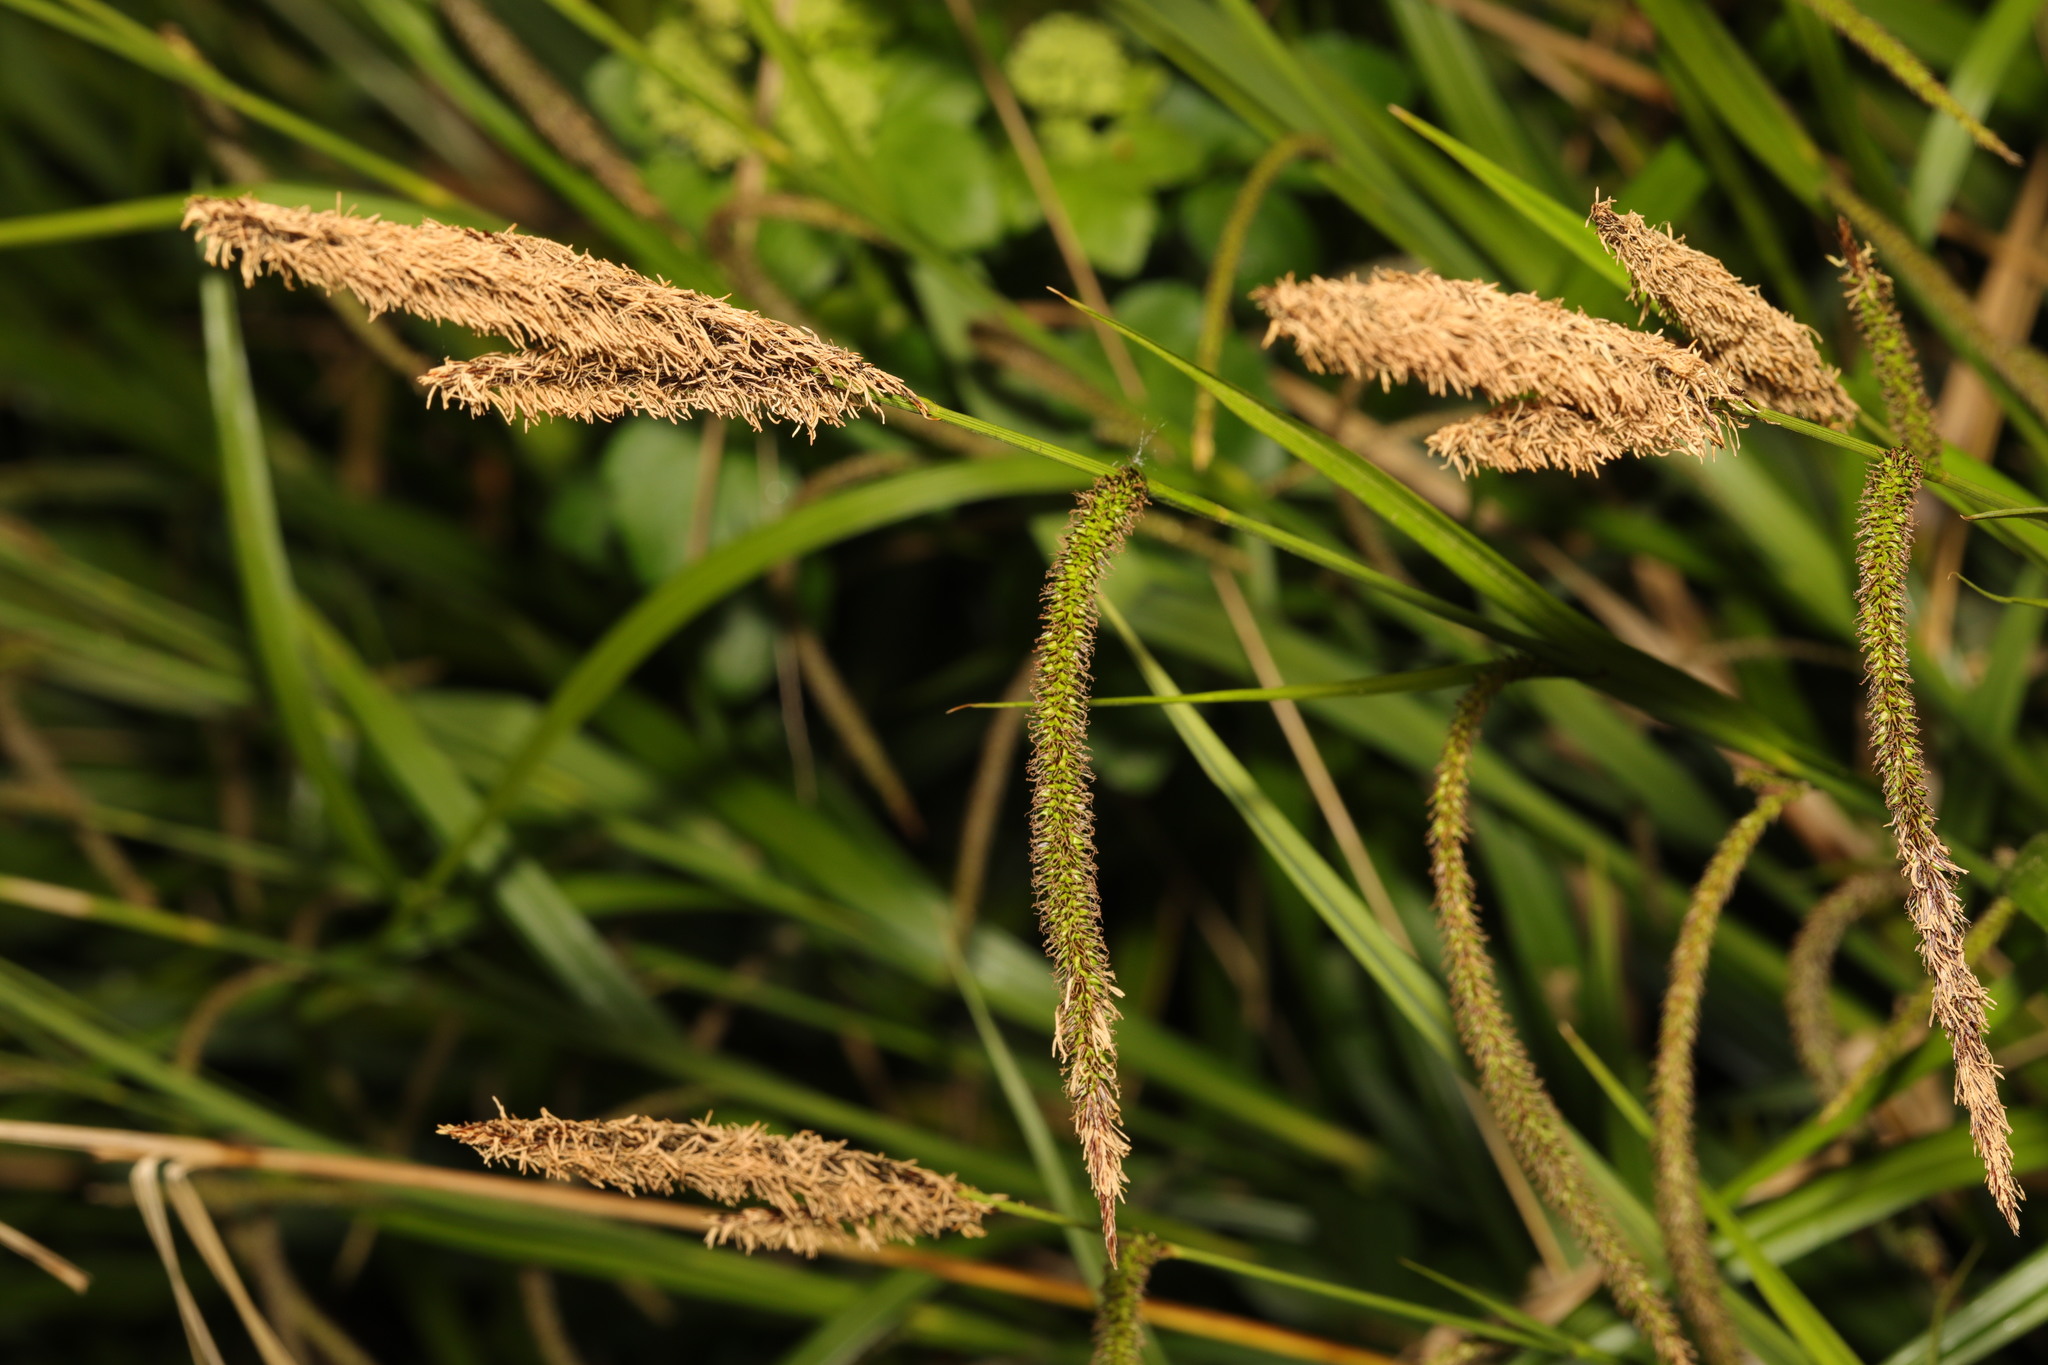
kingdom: Plantae
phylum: Tracheophyta
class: Liliopsida
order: Poales
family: Cyperaceae
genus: Carex
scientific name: Carex nigra
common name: Common sedge
